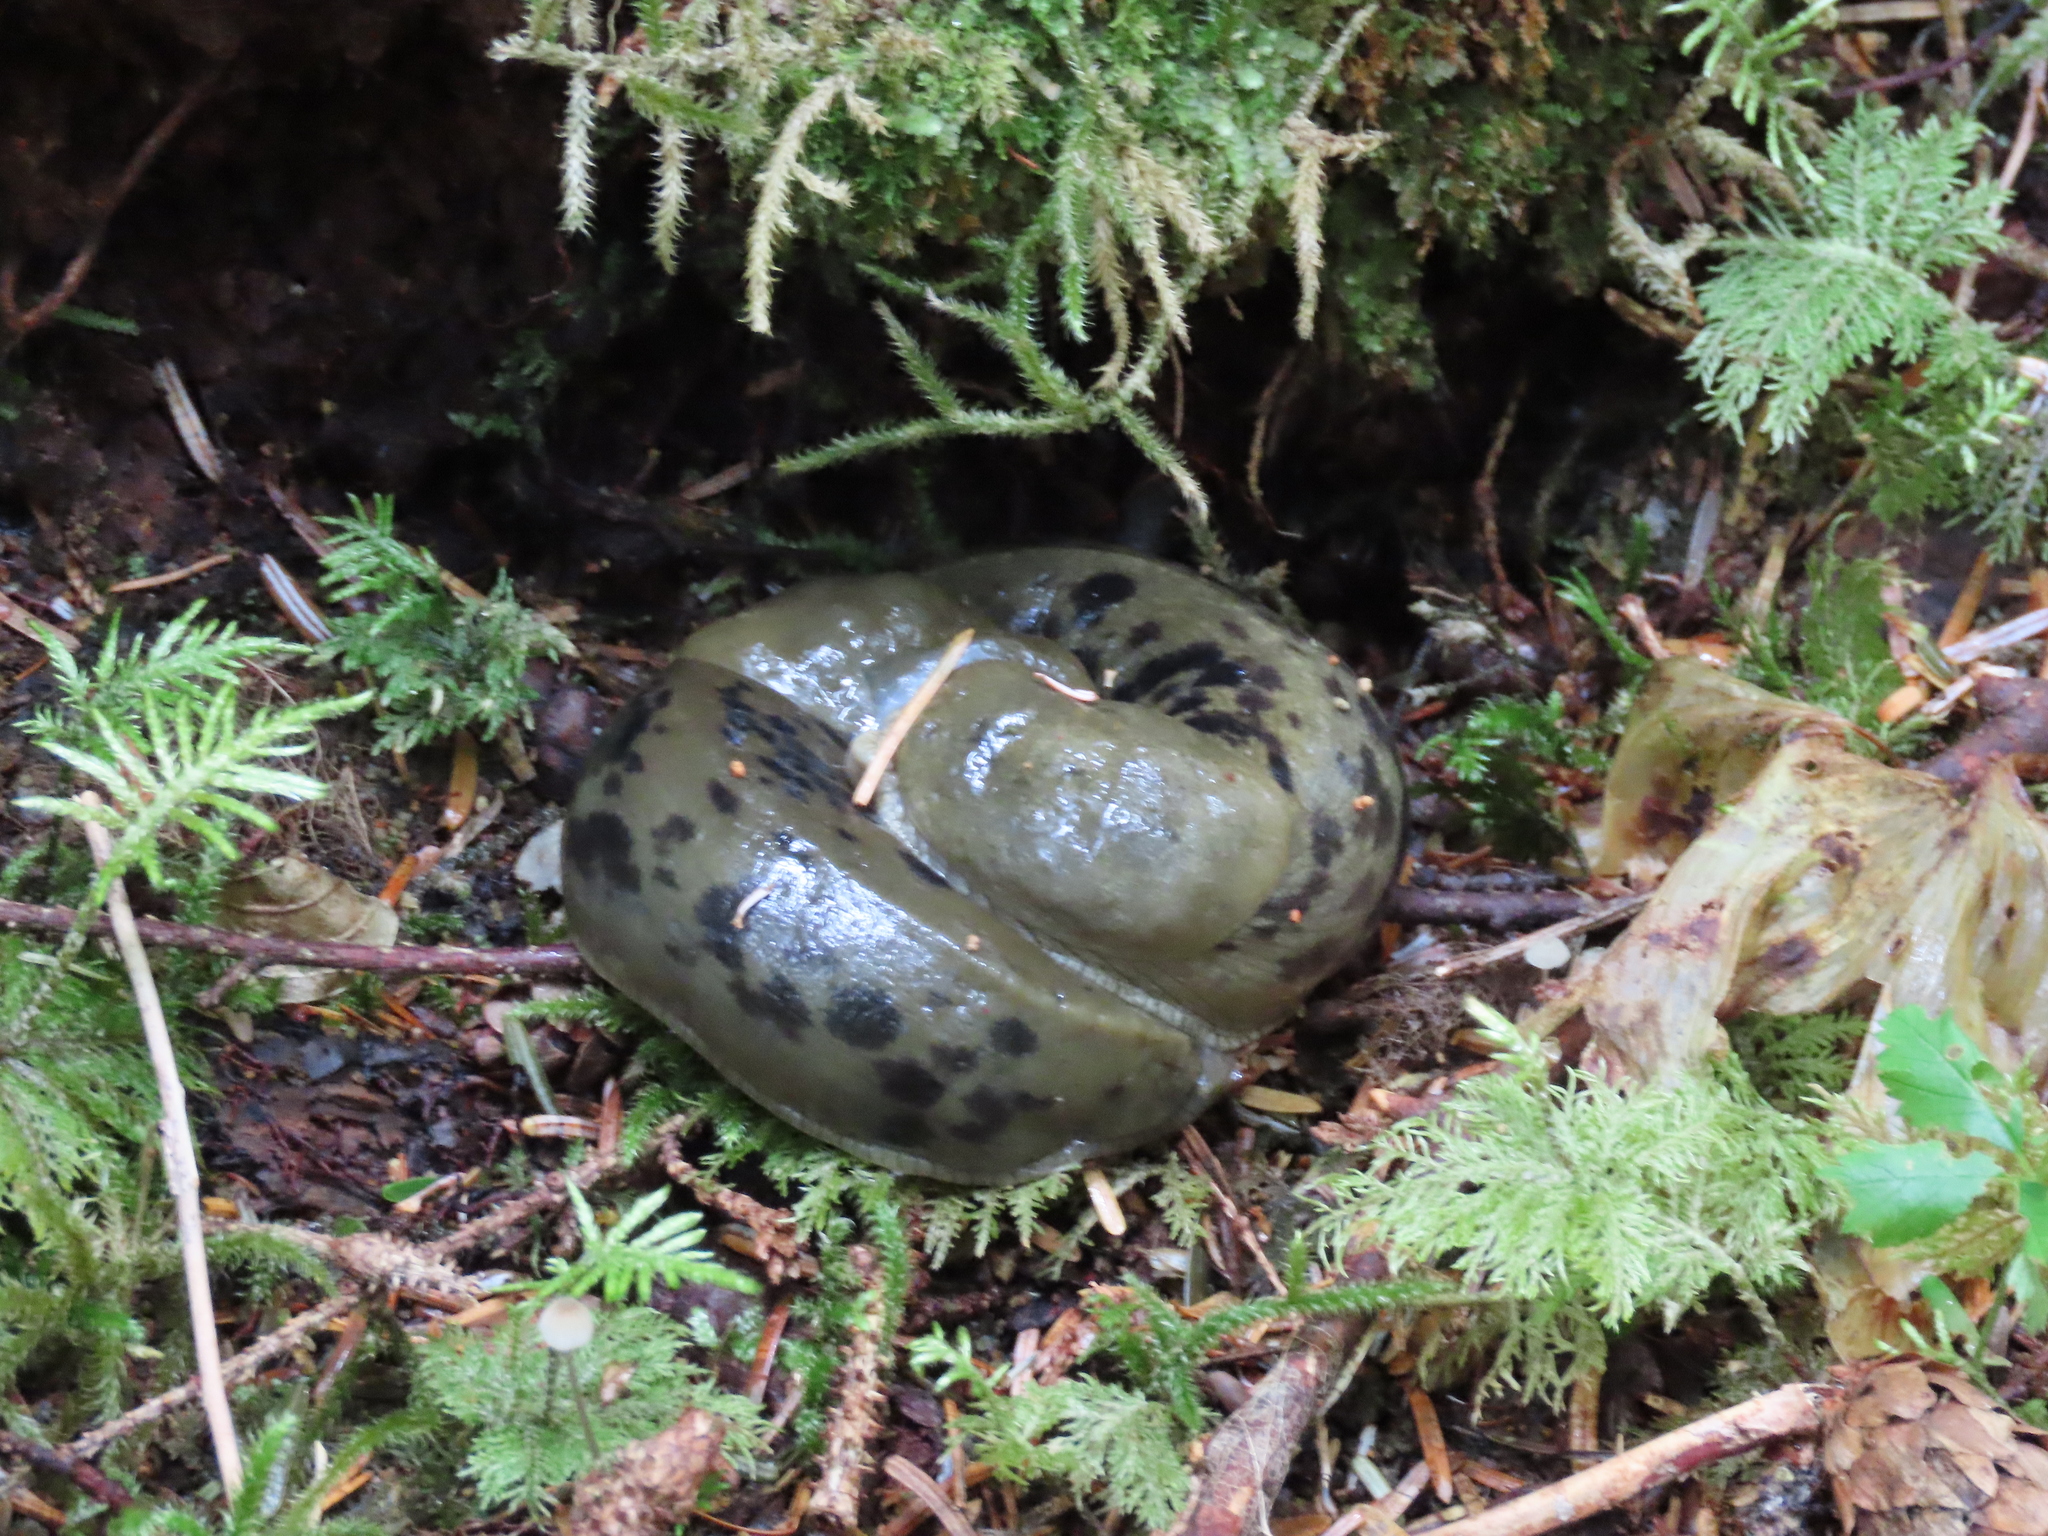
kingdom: Animalia
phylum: Mollusca
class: Gastropoda
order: Stylommatophora
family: Ariolimacidae
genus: Ariolimax
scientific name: Ariolimax columbianus
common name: Pacific banana slug
